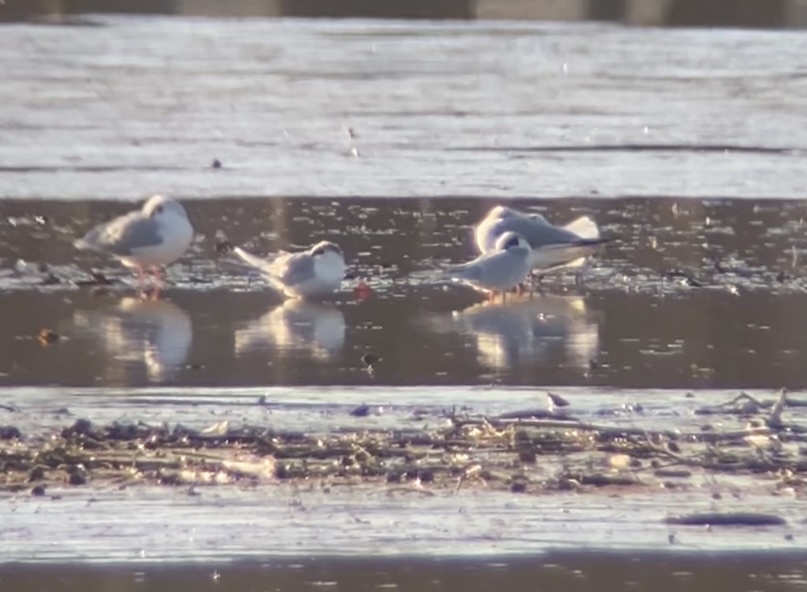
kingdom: Animalia
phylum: Chordata
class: Aves
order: Charadriiformes
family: Laridae
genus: Sterna
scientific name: Sterna forsteri
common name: Forster's tern
